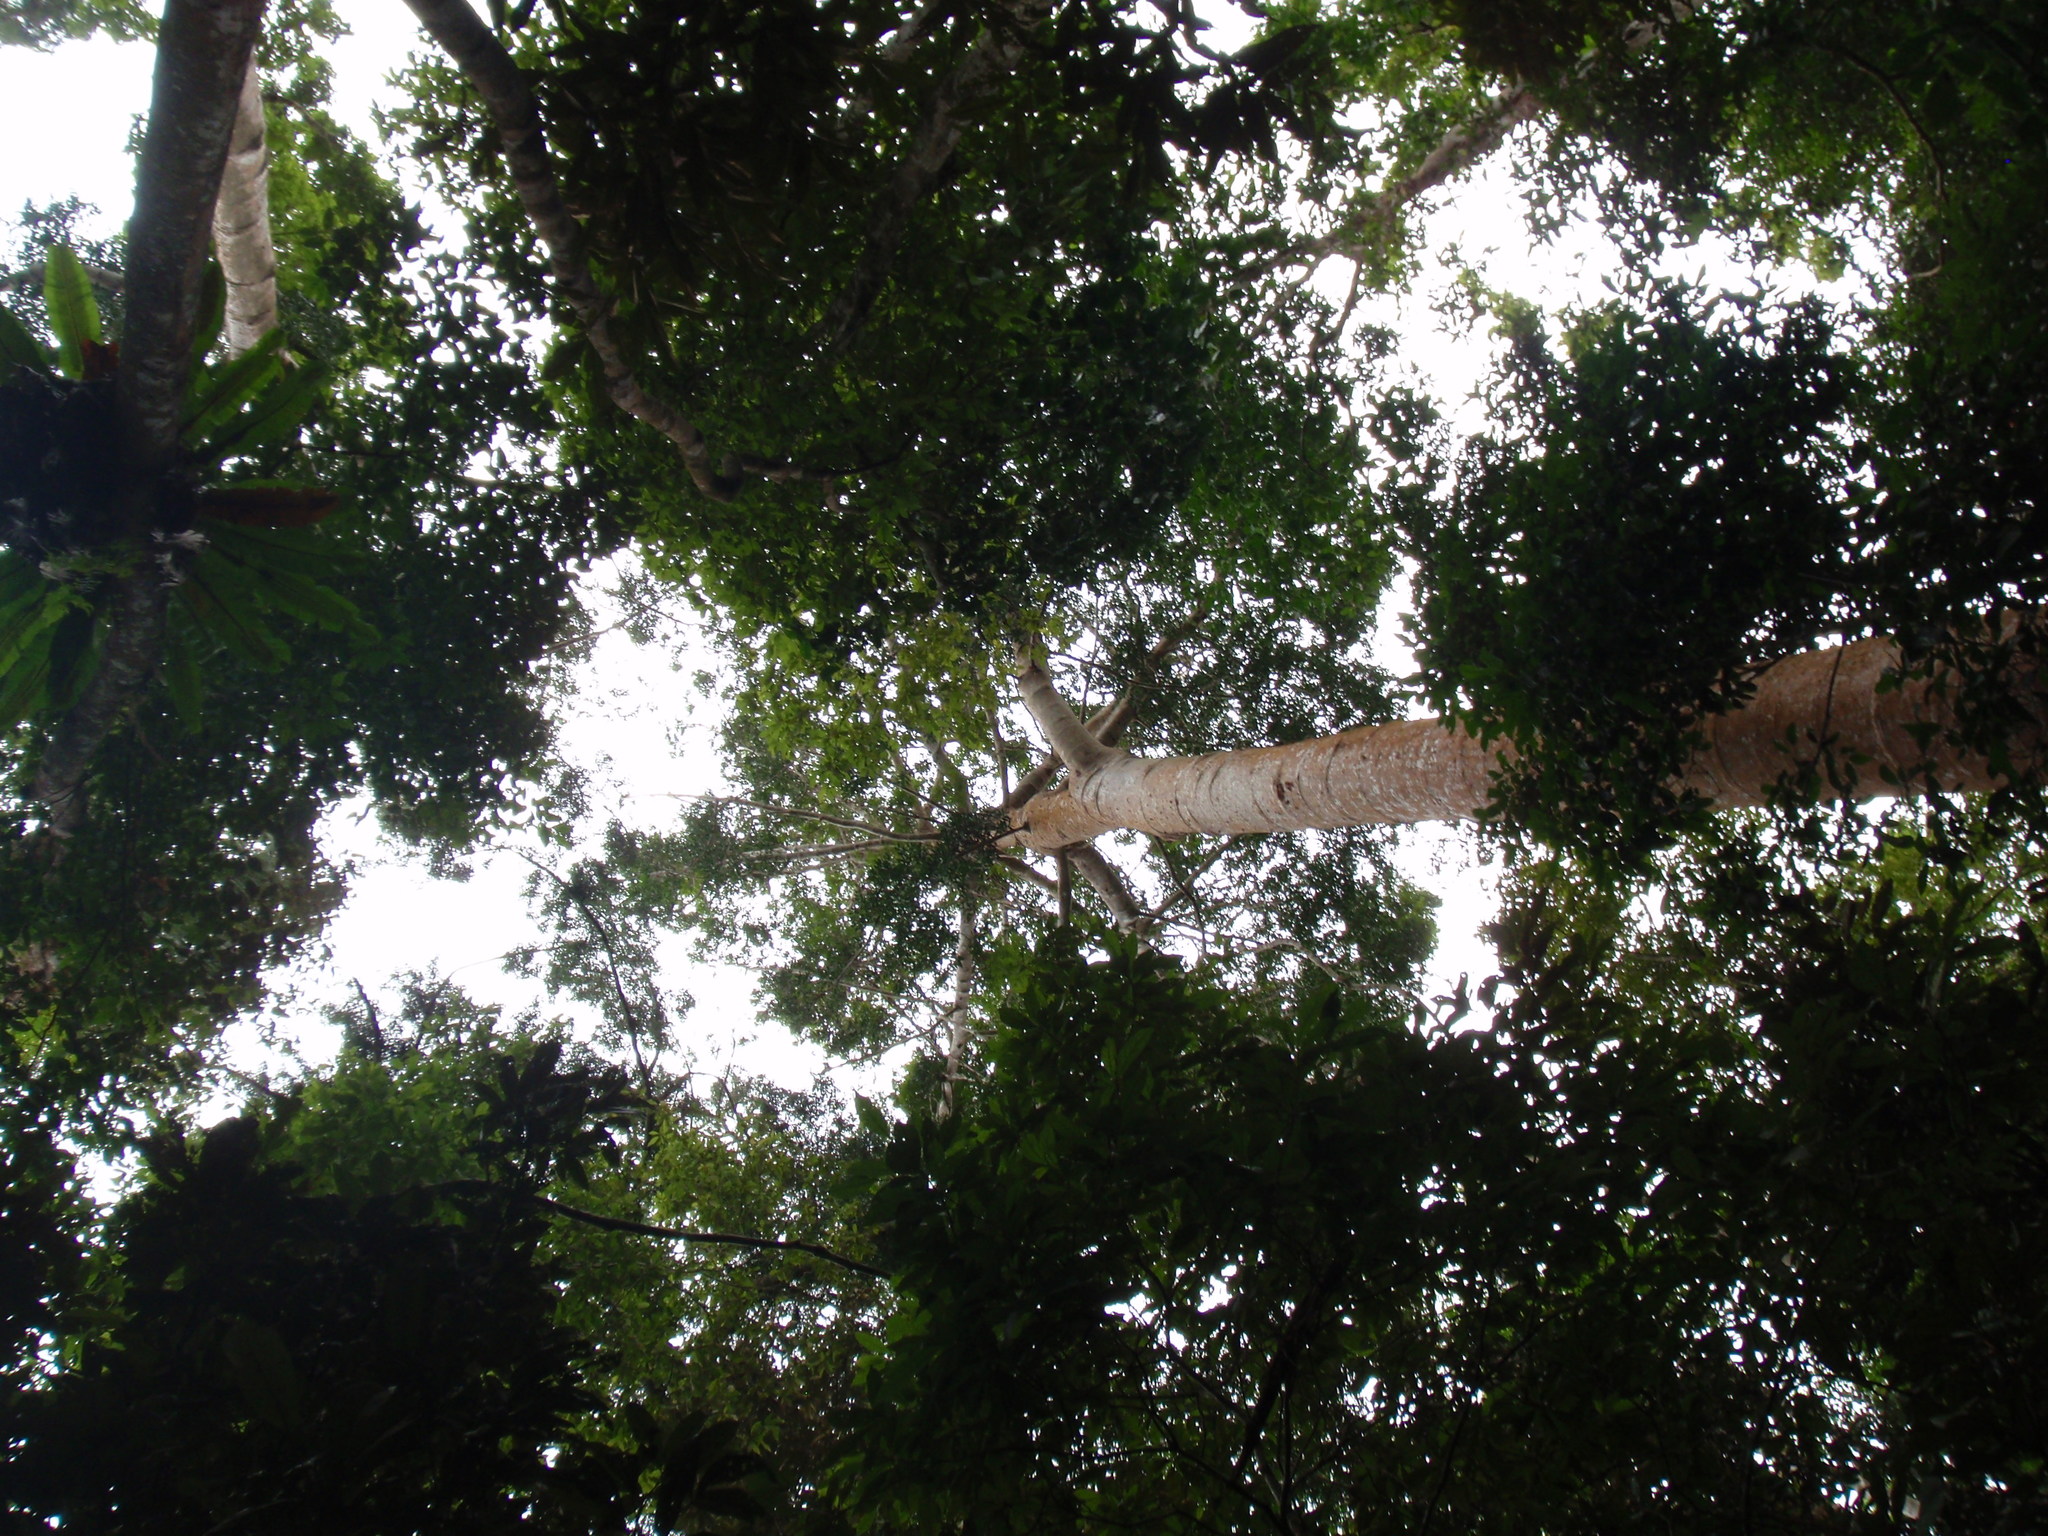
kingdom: Plantae
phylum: Tracheophyta
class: Pinopsida
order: Pinales
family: Araucariaceae
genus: Agathis
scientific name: Agathis robusta
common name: Australian-kauri
